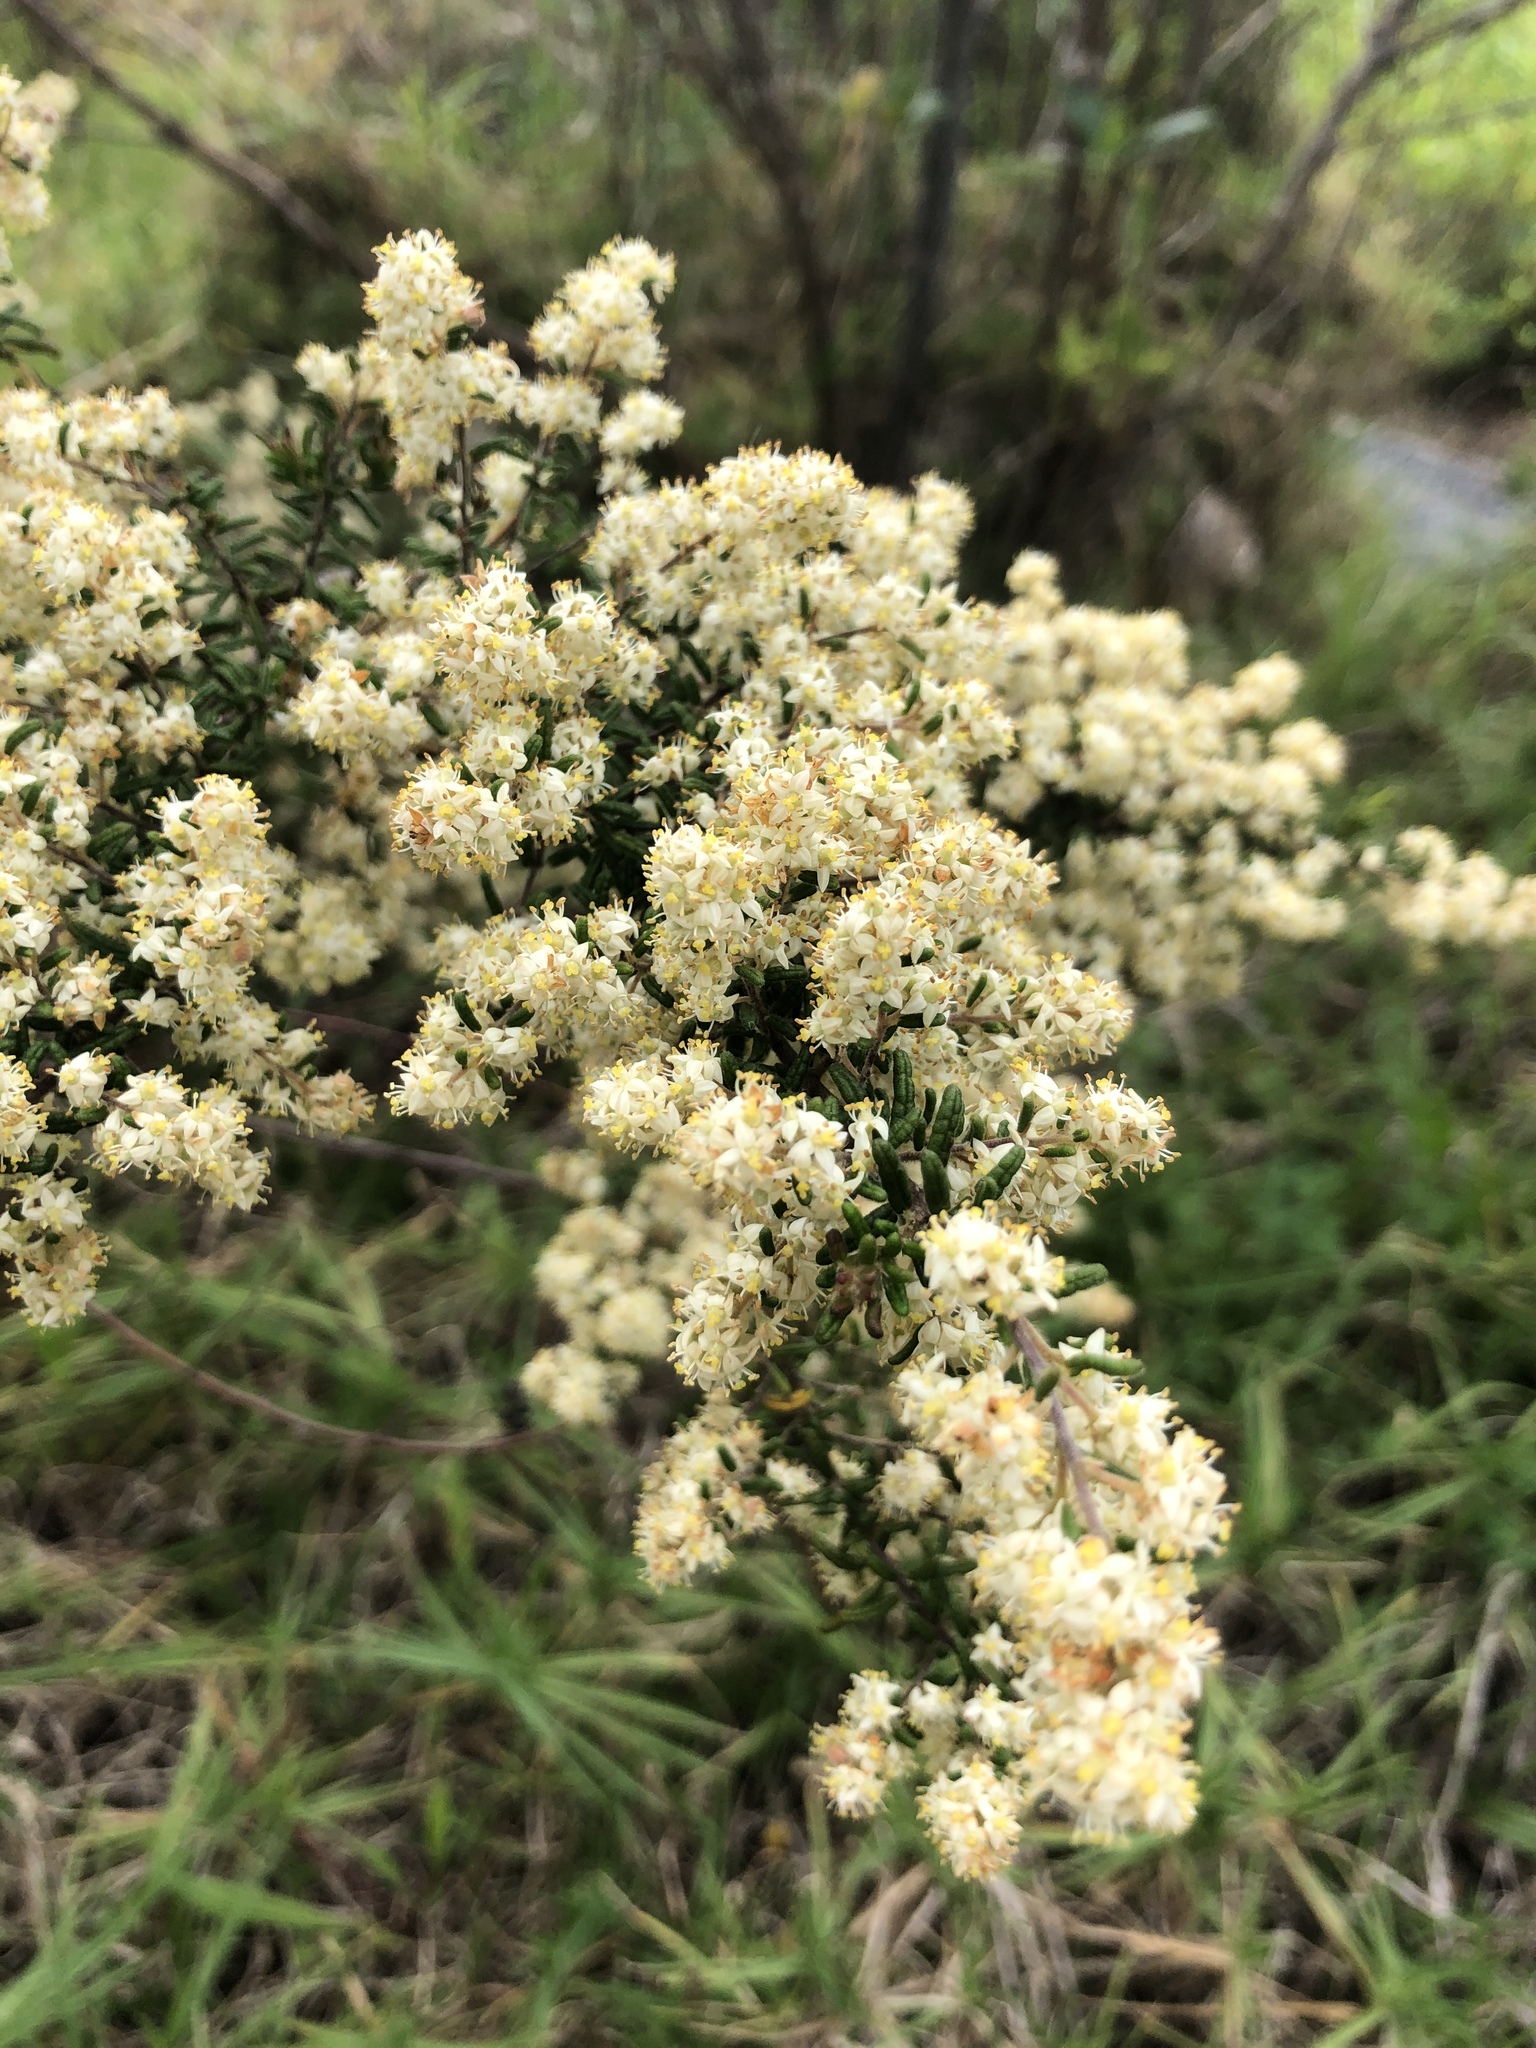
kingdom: Plantae
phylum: Tracheophyta
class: Magnoliopsida
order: Rosales
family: Rhamnaceae
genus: Pomaderris
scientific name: Pomaderris amoena
